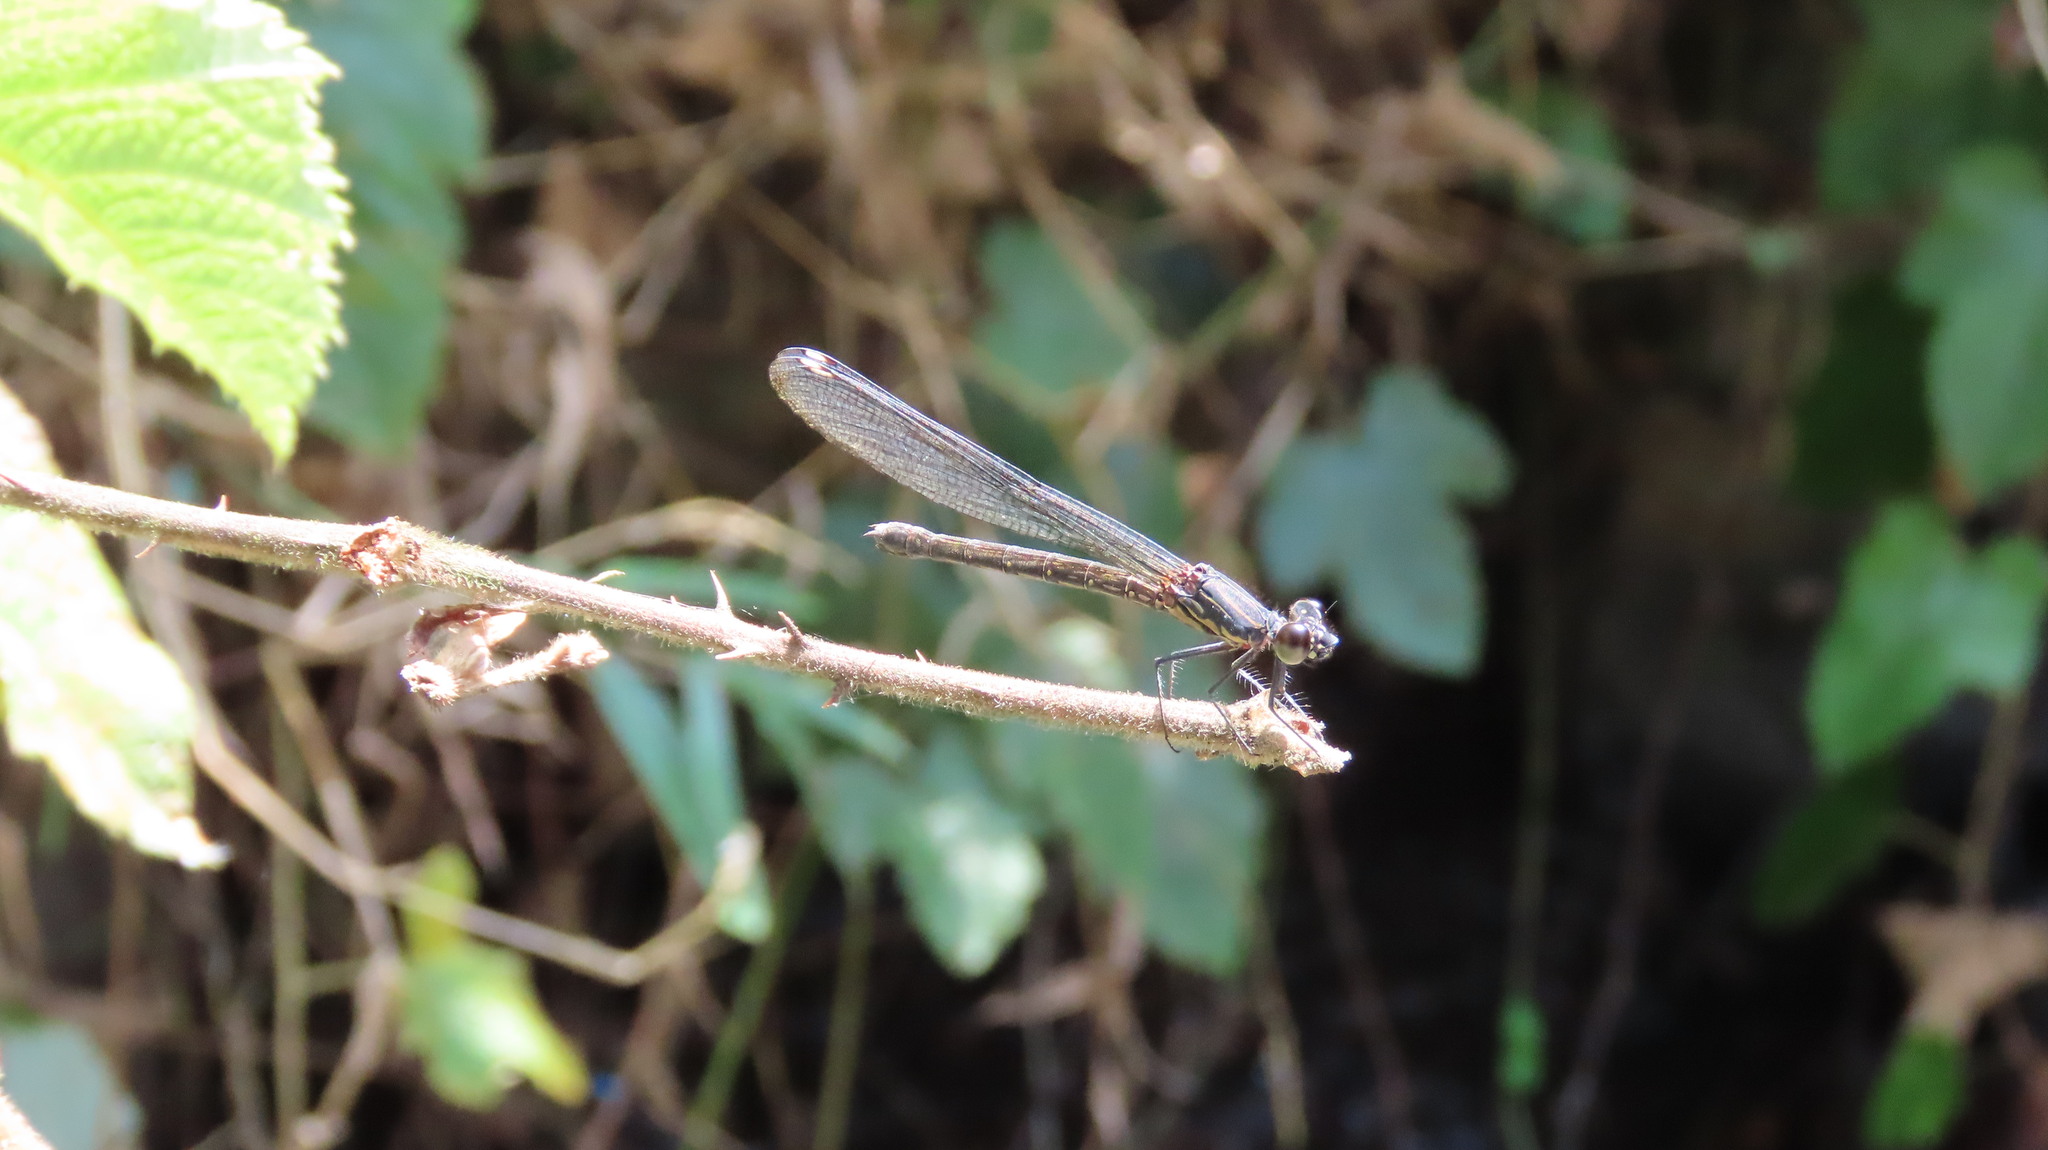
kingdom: Animalia
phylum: Arthropoda
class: Insecta
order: Odonata
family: Chlorocyphidae
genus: Heliocypha
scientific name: Heliocypha bisignata
